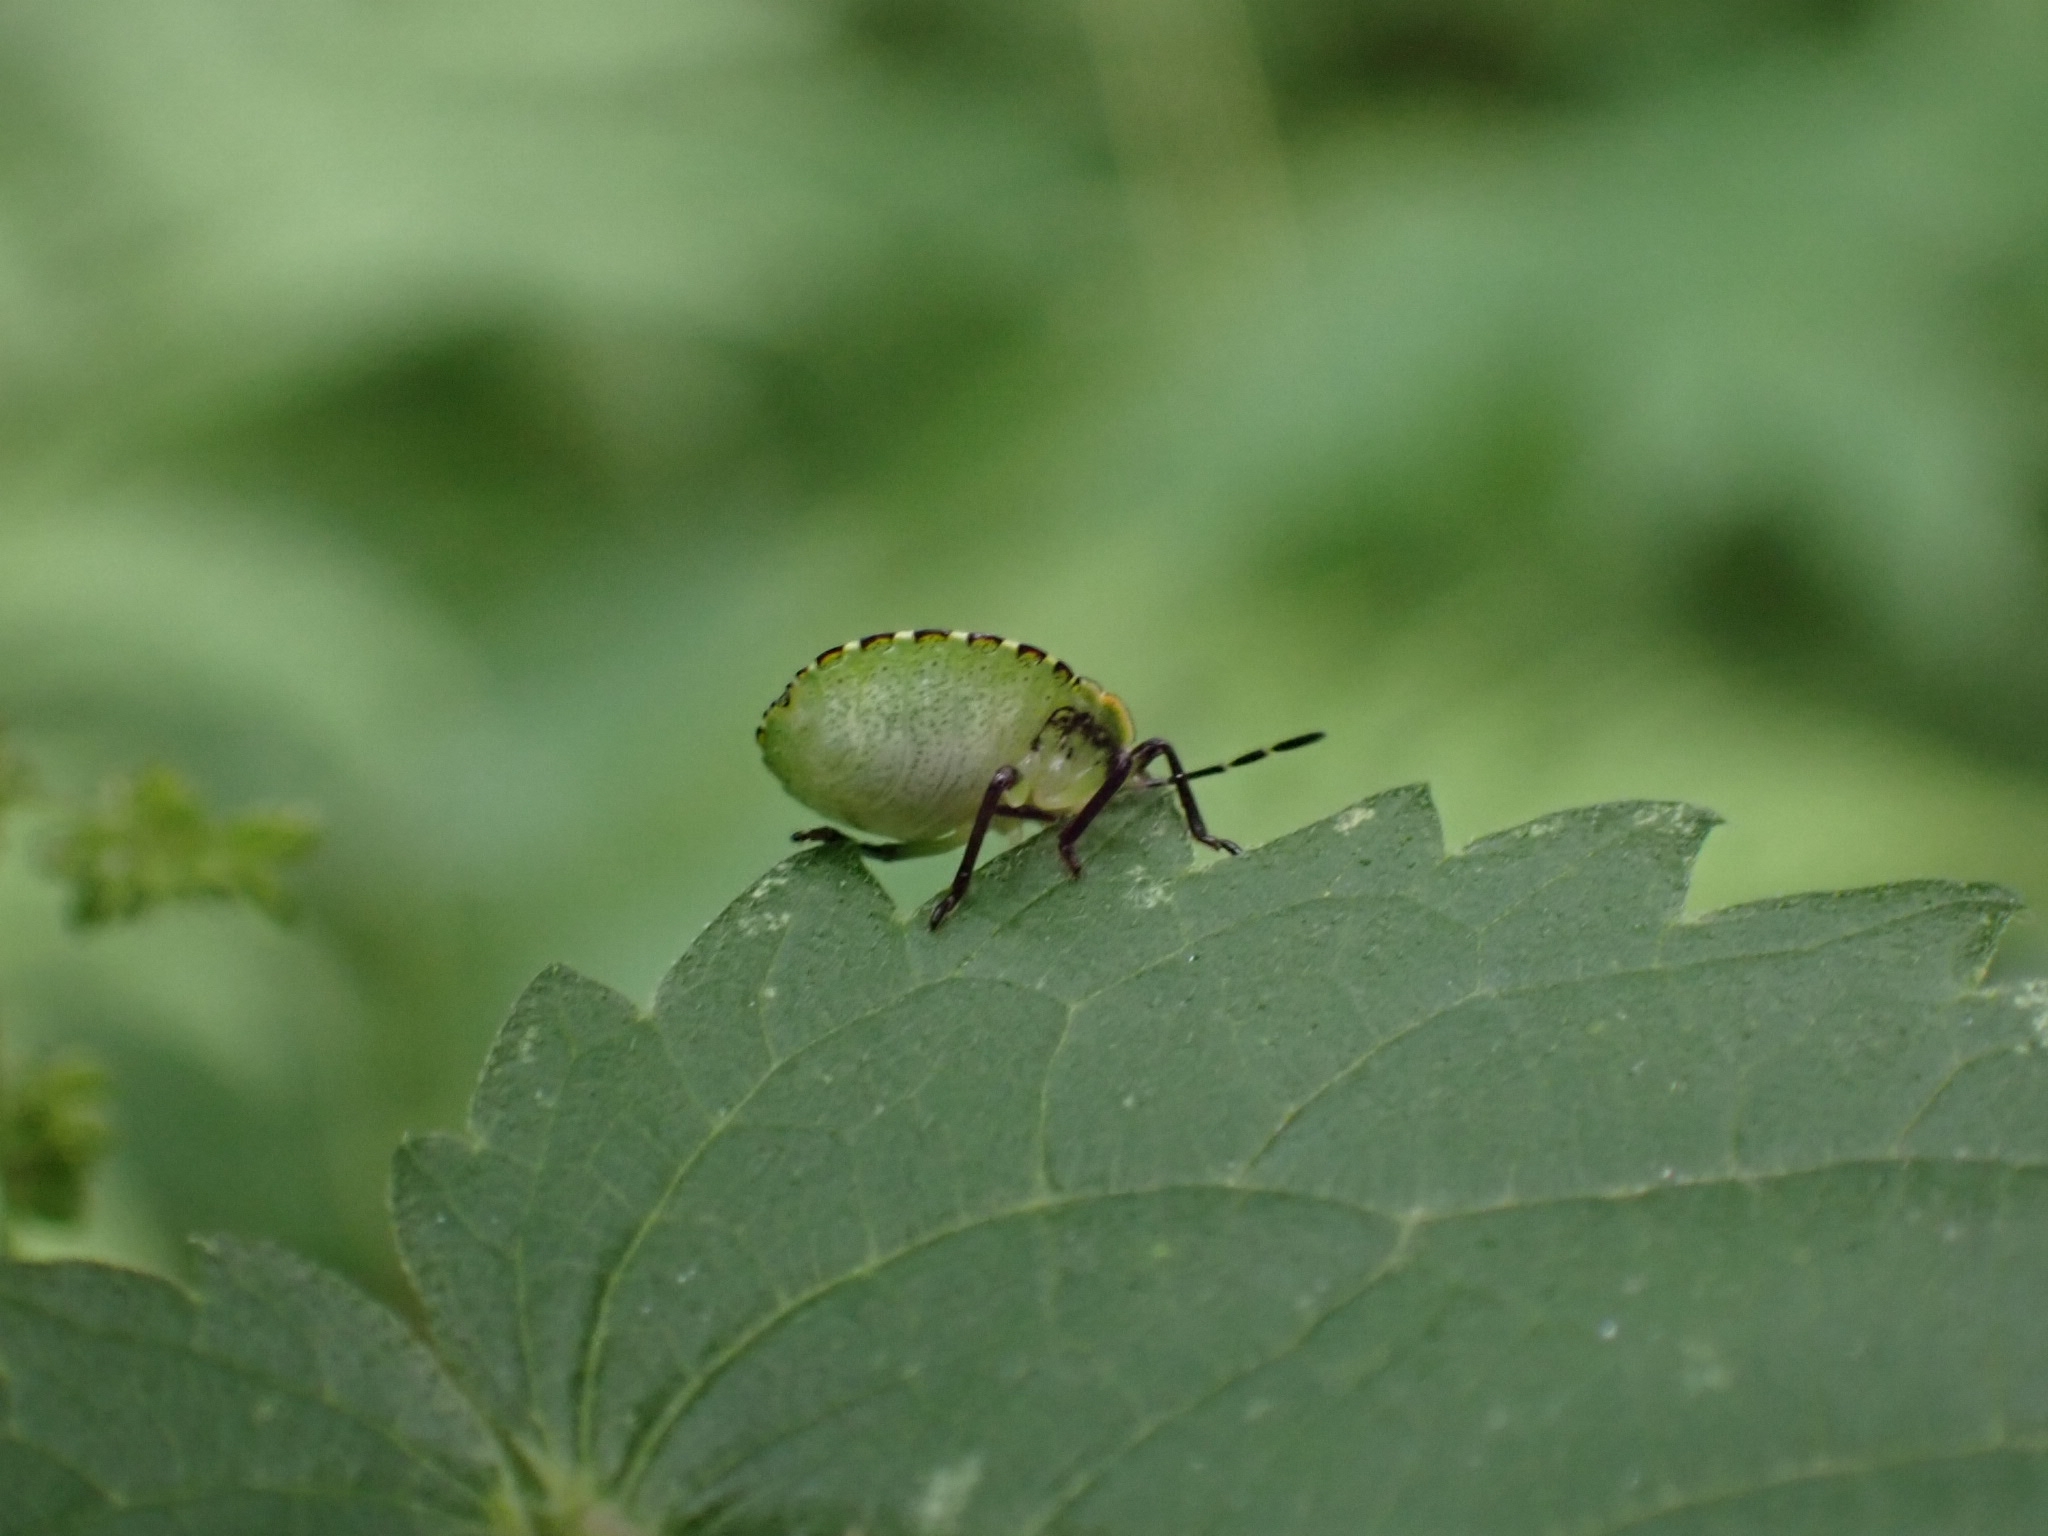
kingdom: Animalia
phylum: Arthropoda
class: Insecta
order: Hemiptera
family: Pentatomidae
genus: Palomena
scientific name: Palomena prasina
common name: Green shieldbug
